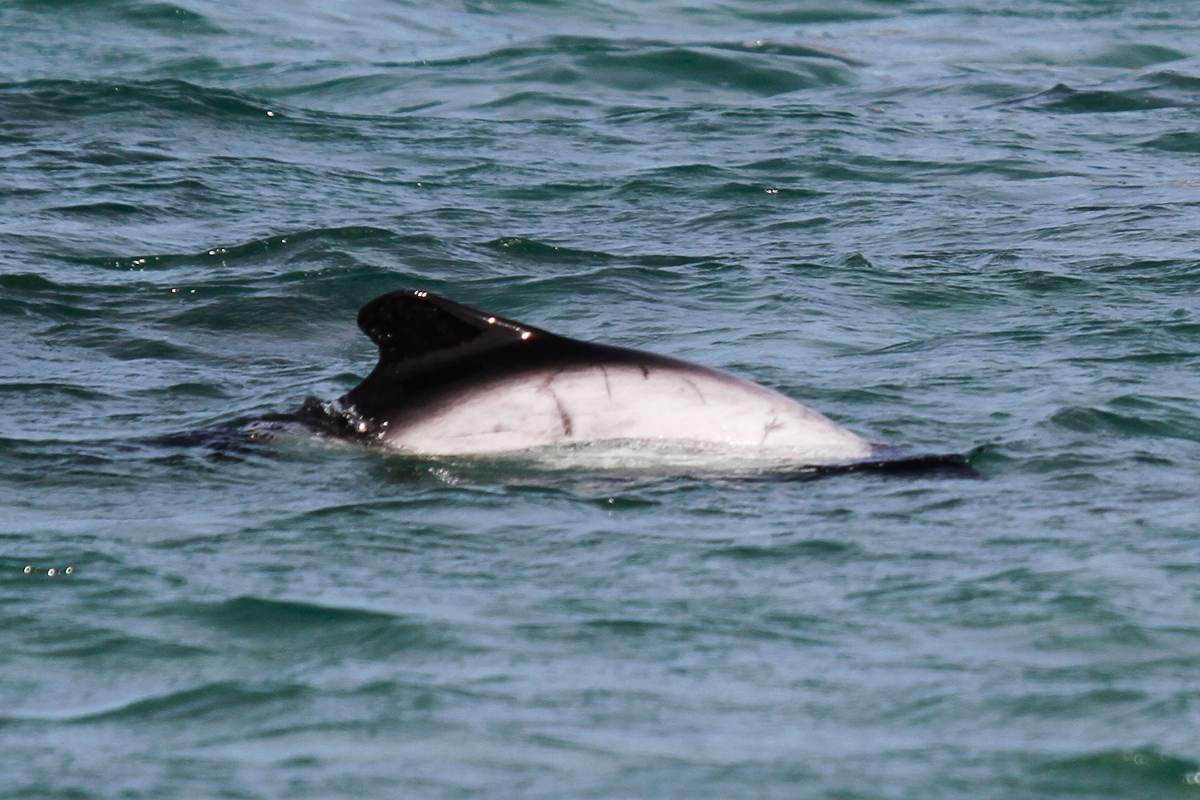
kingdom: Animalia
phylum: Chordata
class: Mammalia
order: Cetacea
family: Delphinidae
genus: Cephalorhynchus
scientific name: Cephalorhynchus commersonii
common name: Commerson's dolphin
